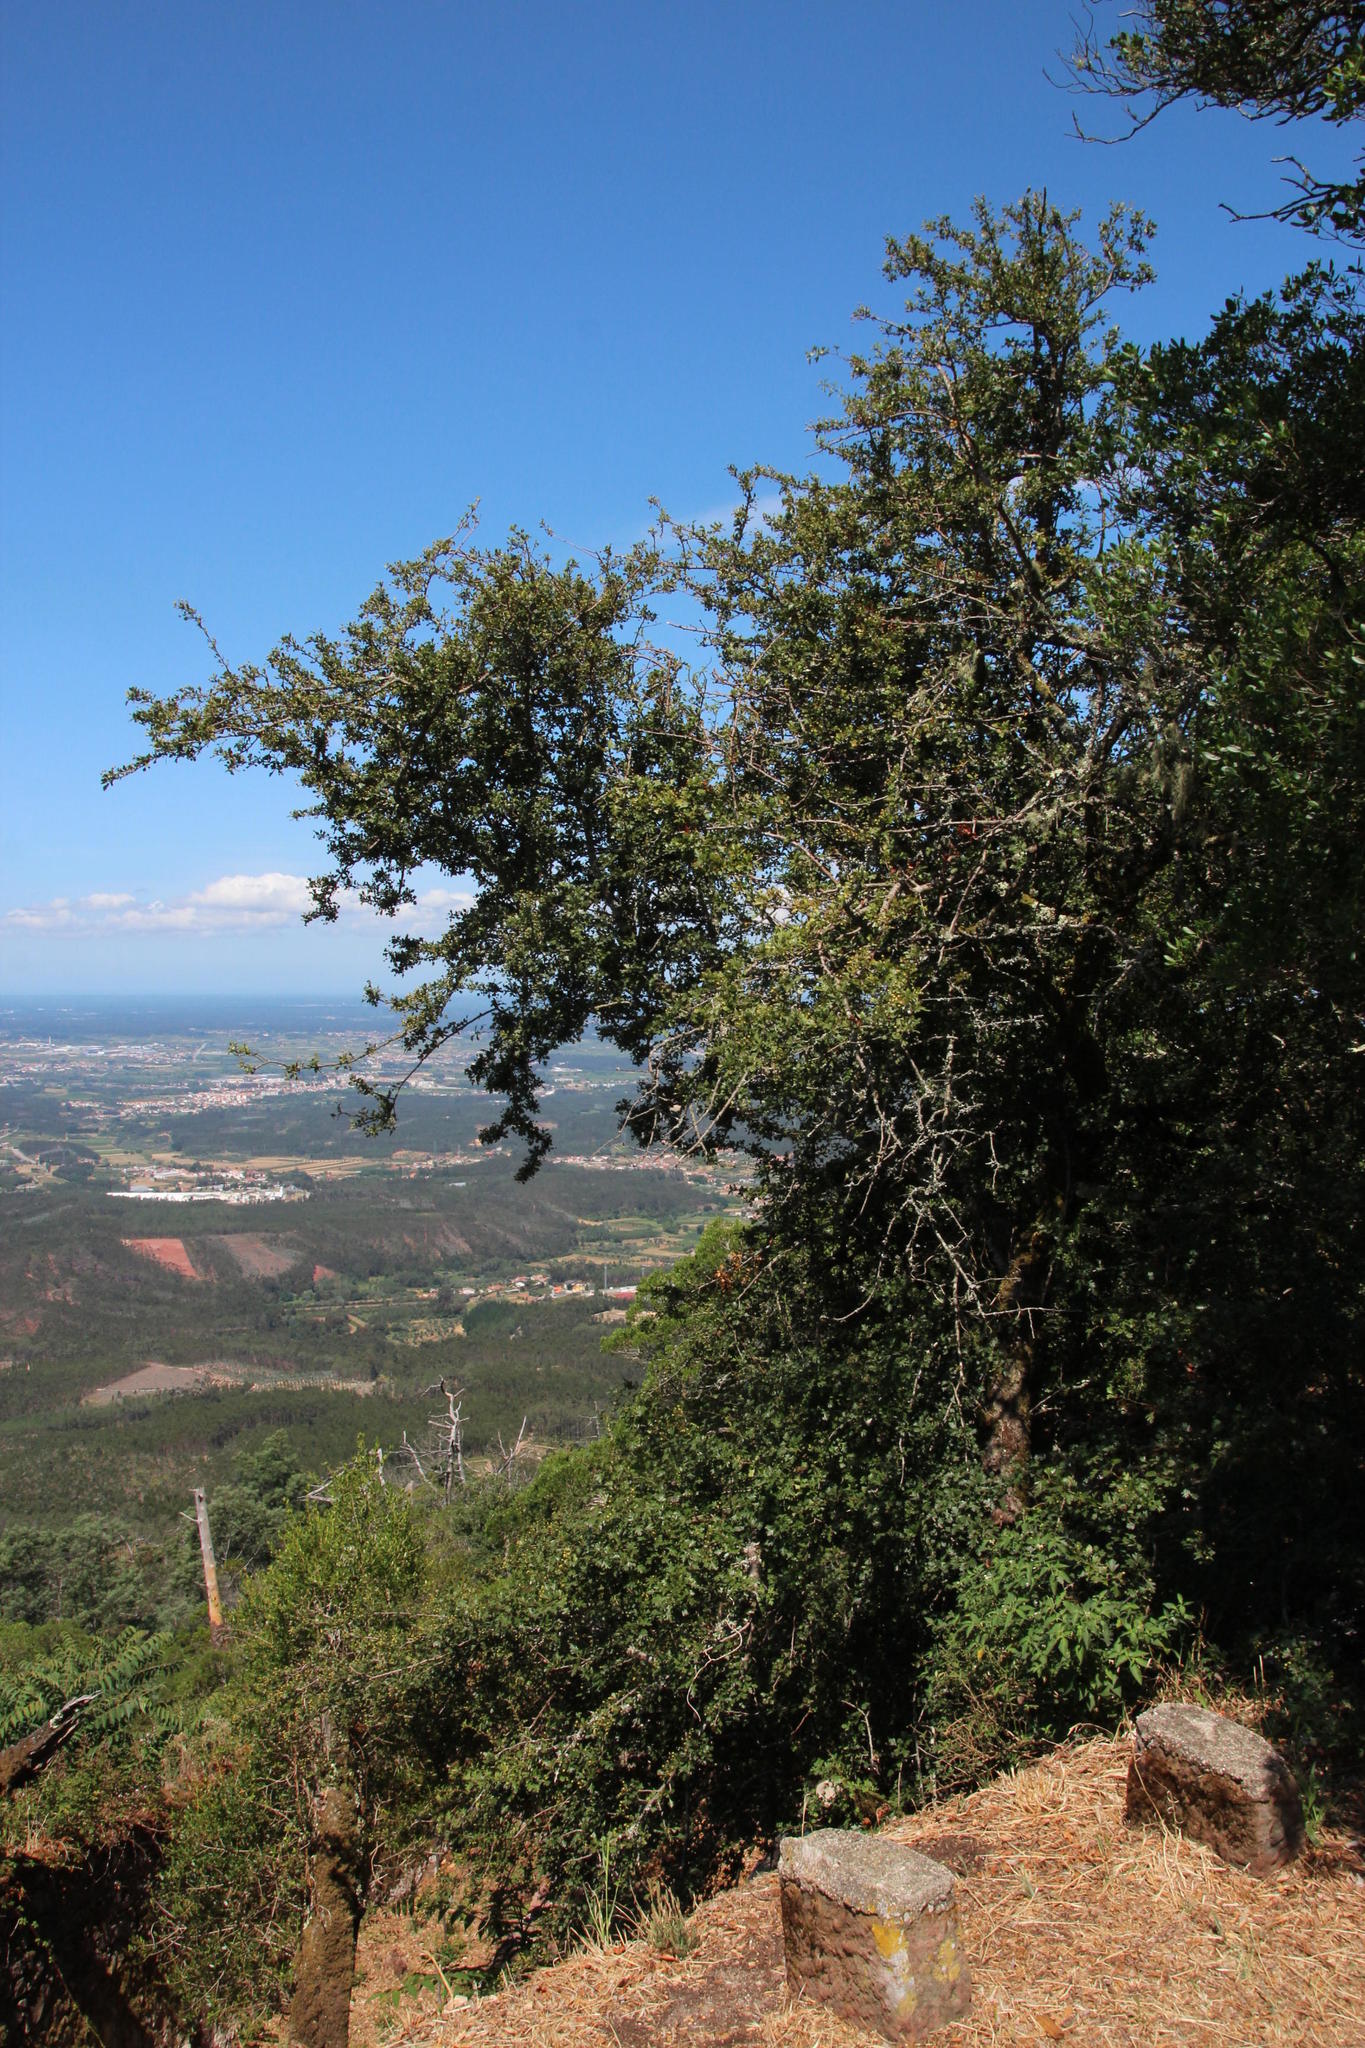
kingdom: Plantae
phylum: Tracheophyta
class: Magnoliopsida
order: Rosales
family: Rosaceae
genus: Crataegus
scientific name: Crataegus monogyna
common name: Hawthorn
